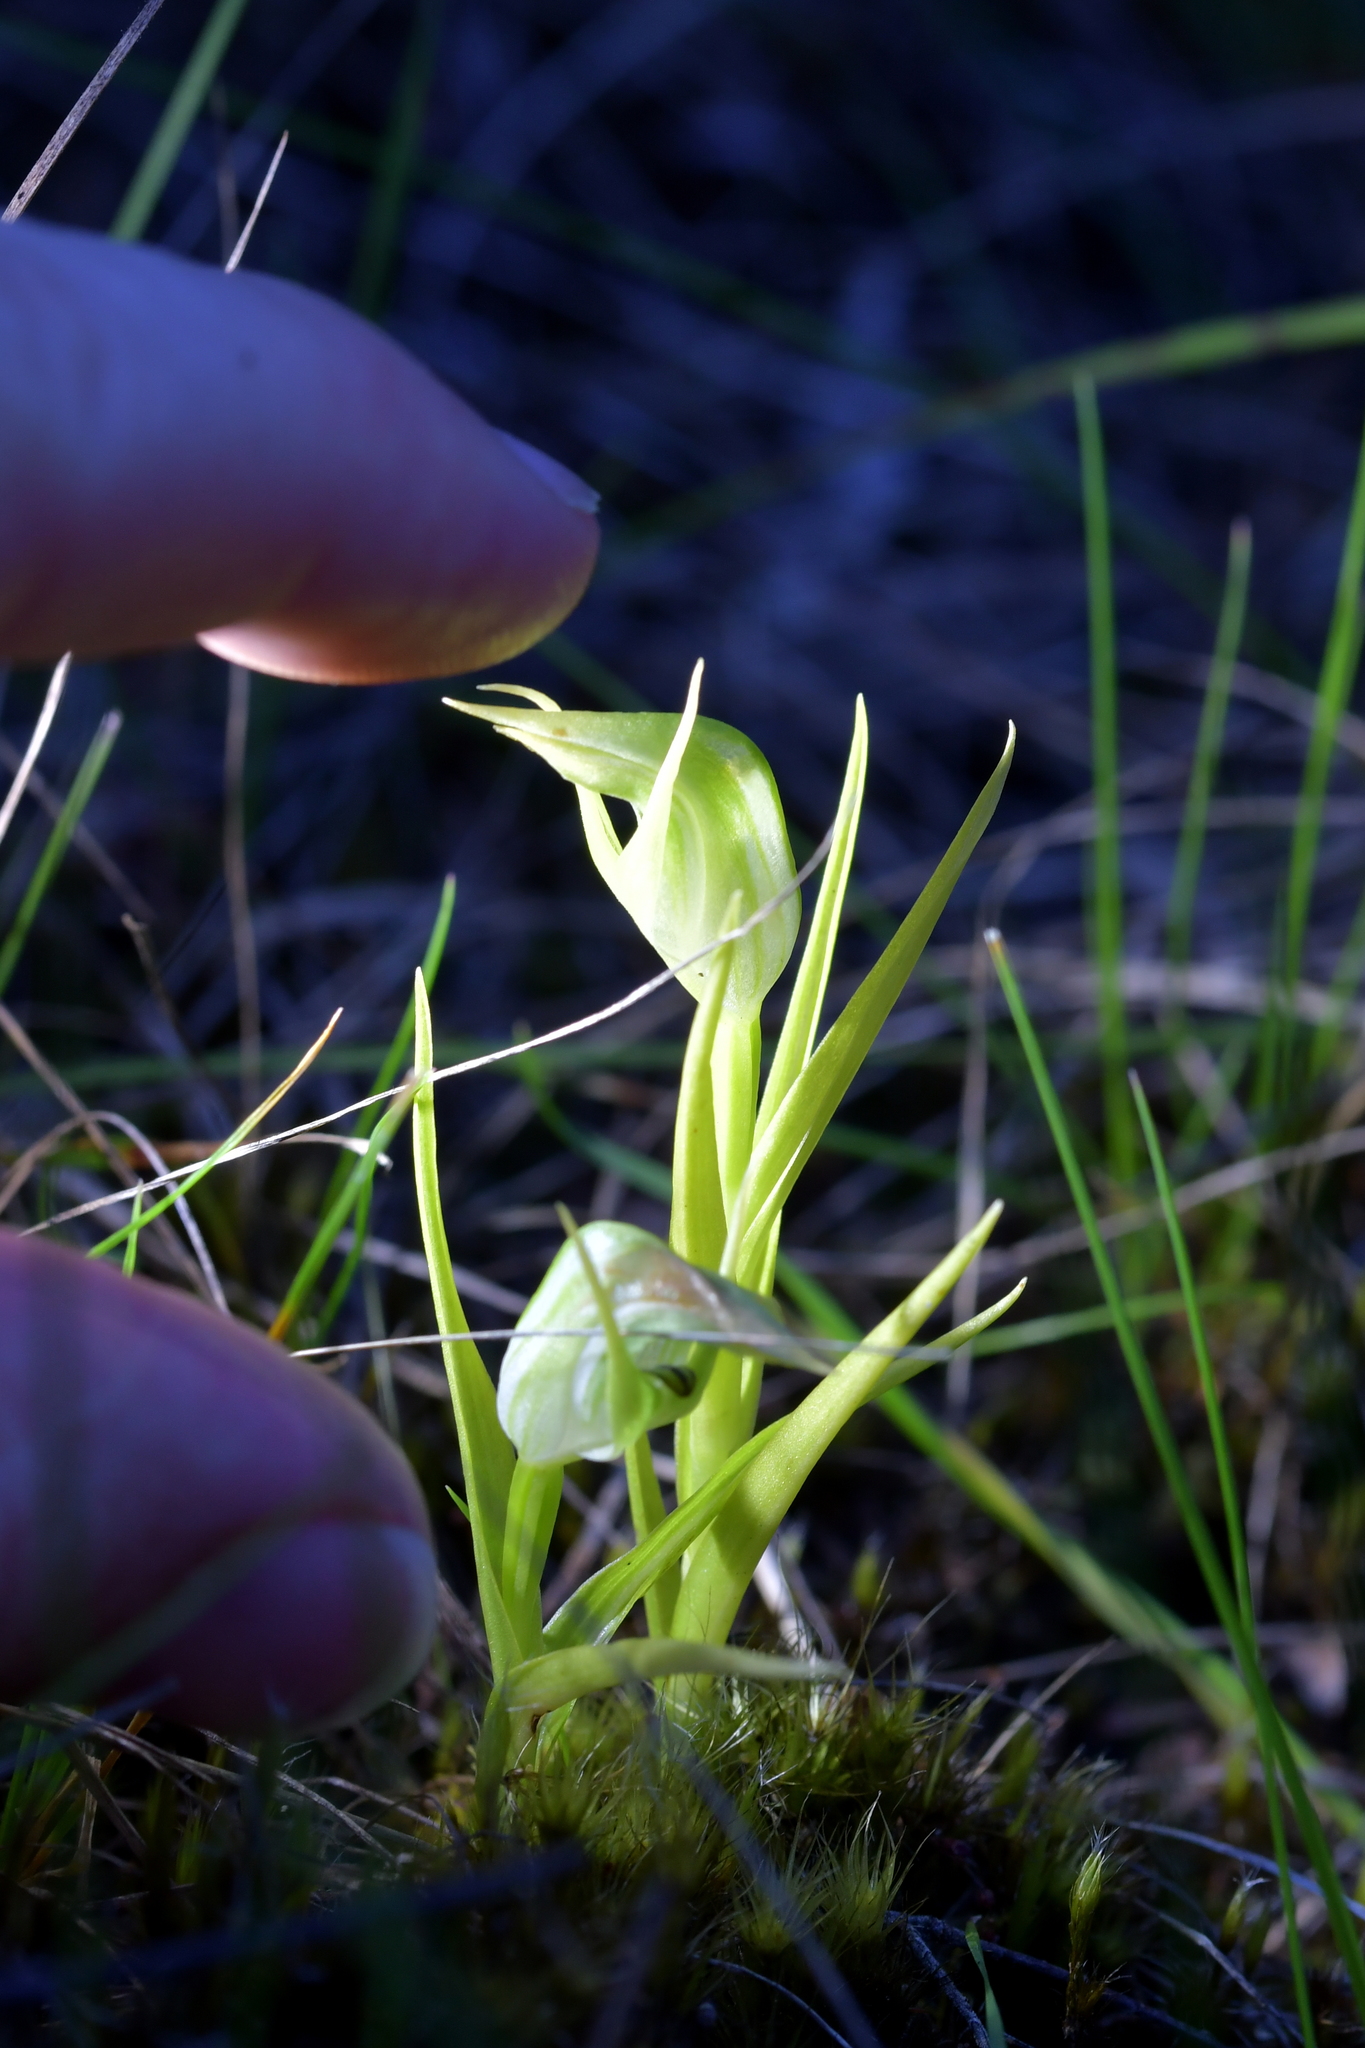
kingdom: Plantae
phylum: Tracheophyta
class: Liliopsida
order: Asparagales
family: Orchidaceae
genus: Pterostylis
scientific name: Pterostylis graminea
